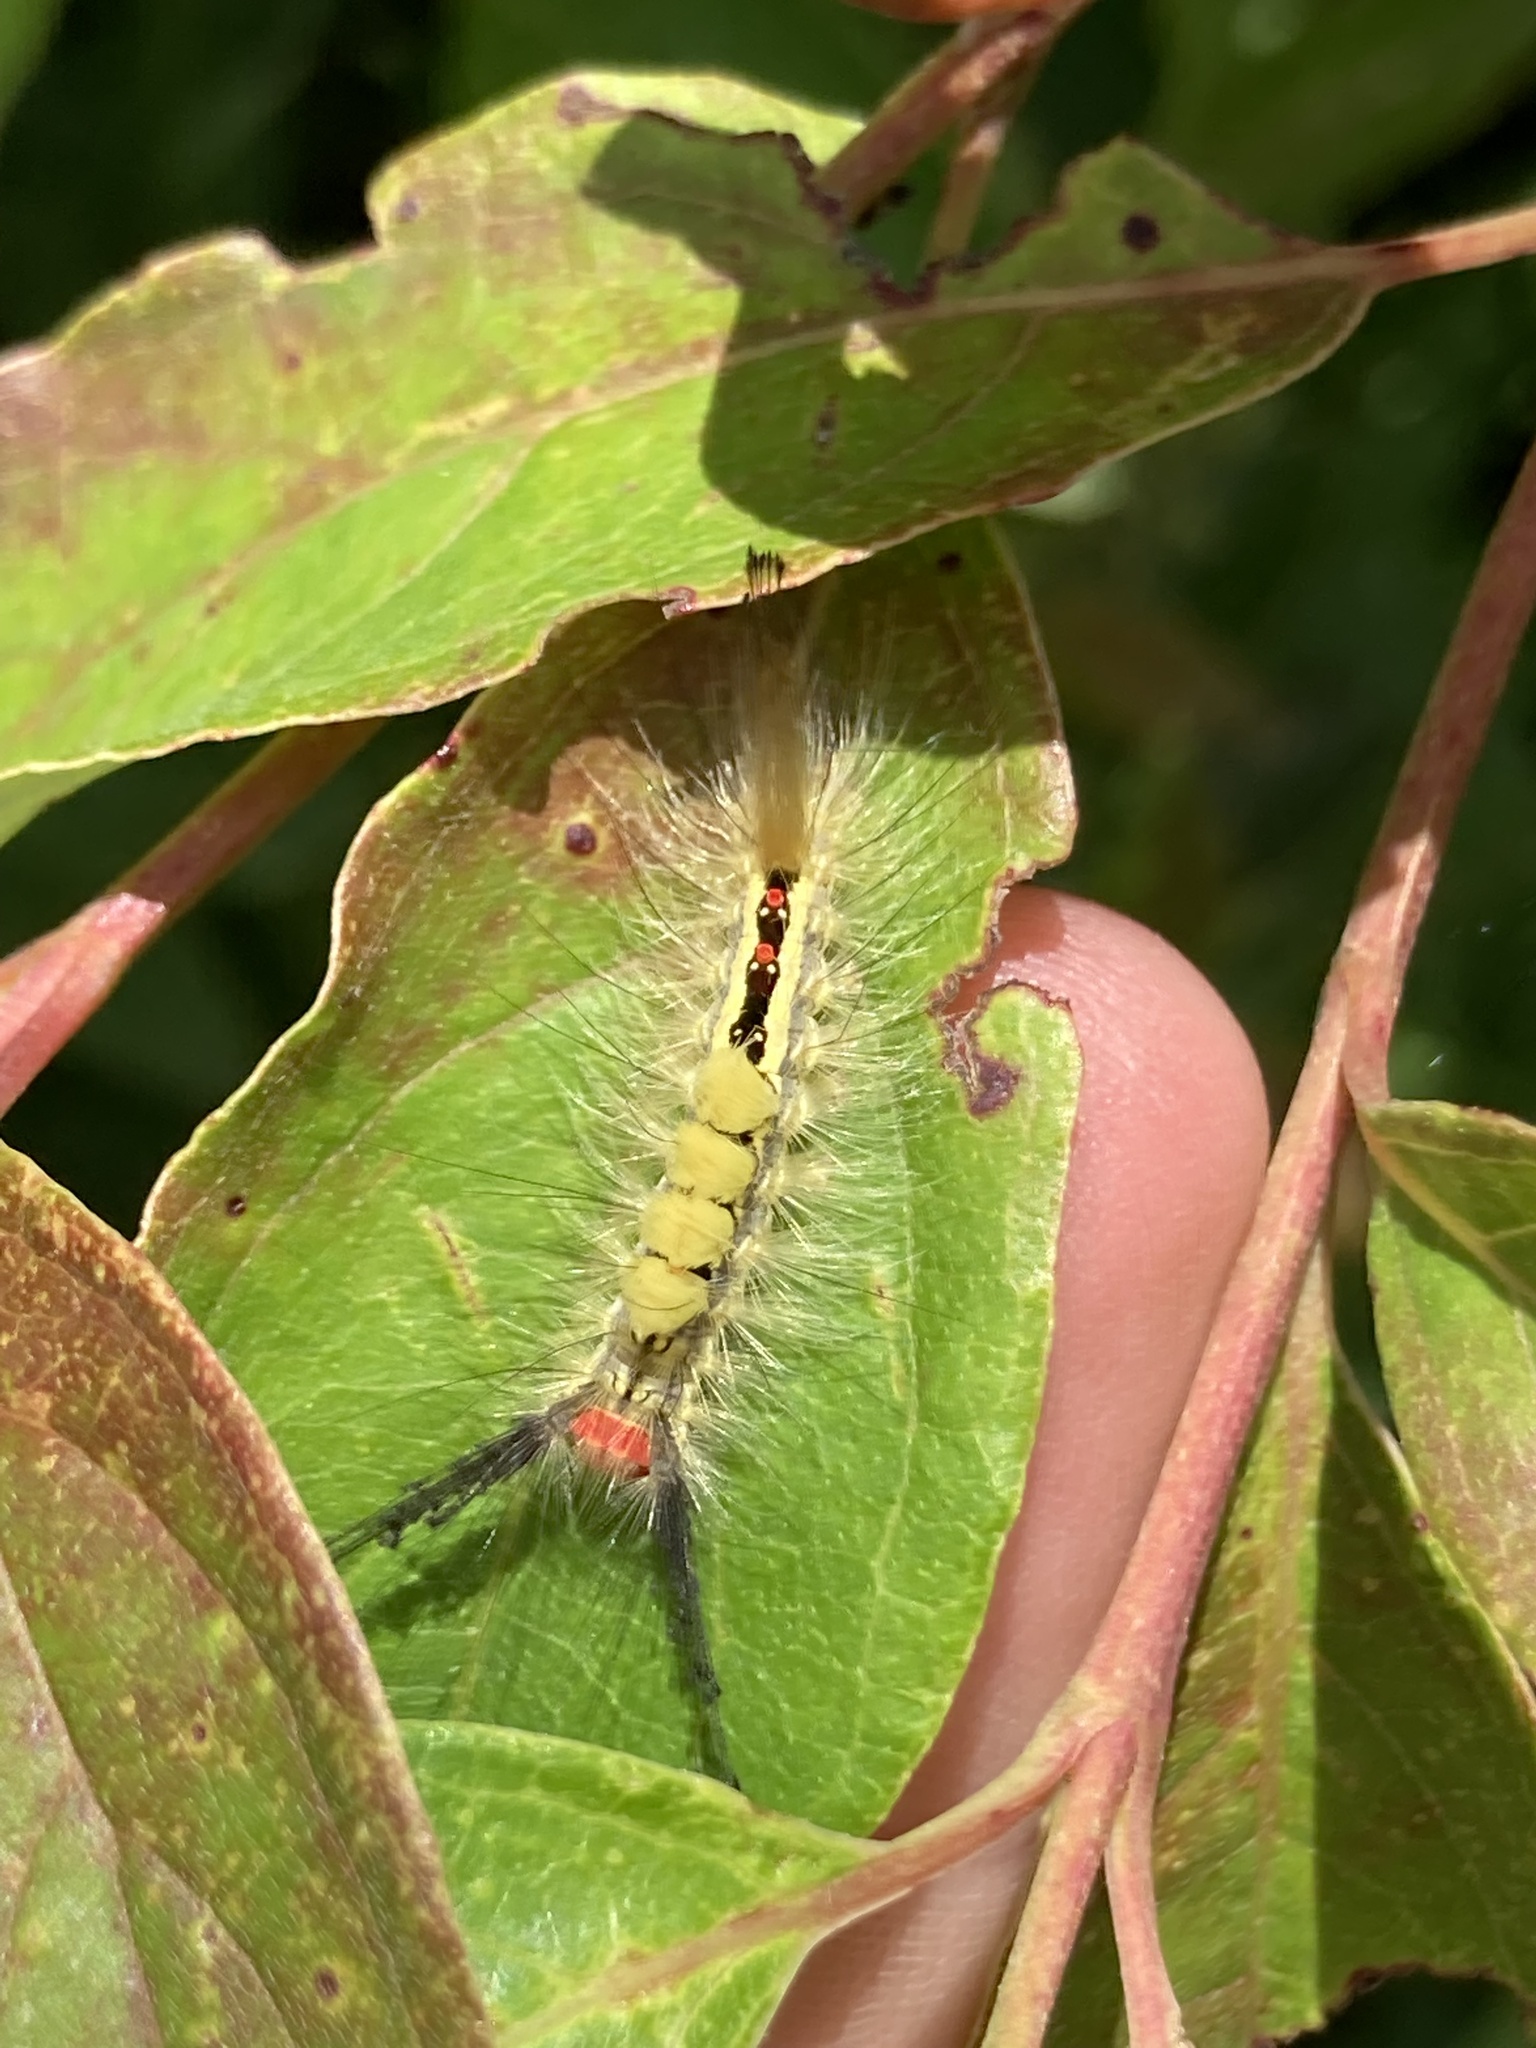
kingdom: Animalia
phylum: Arthropoda
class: Insecta
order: Lepidoptera
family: Erebidae
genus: Orgyia
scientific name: Orgyia leucostigma
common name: White-marked tussock moth
